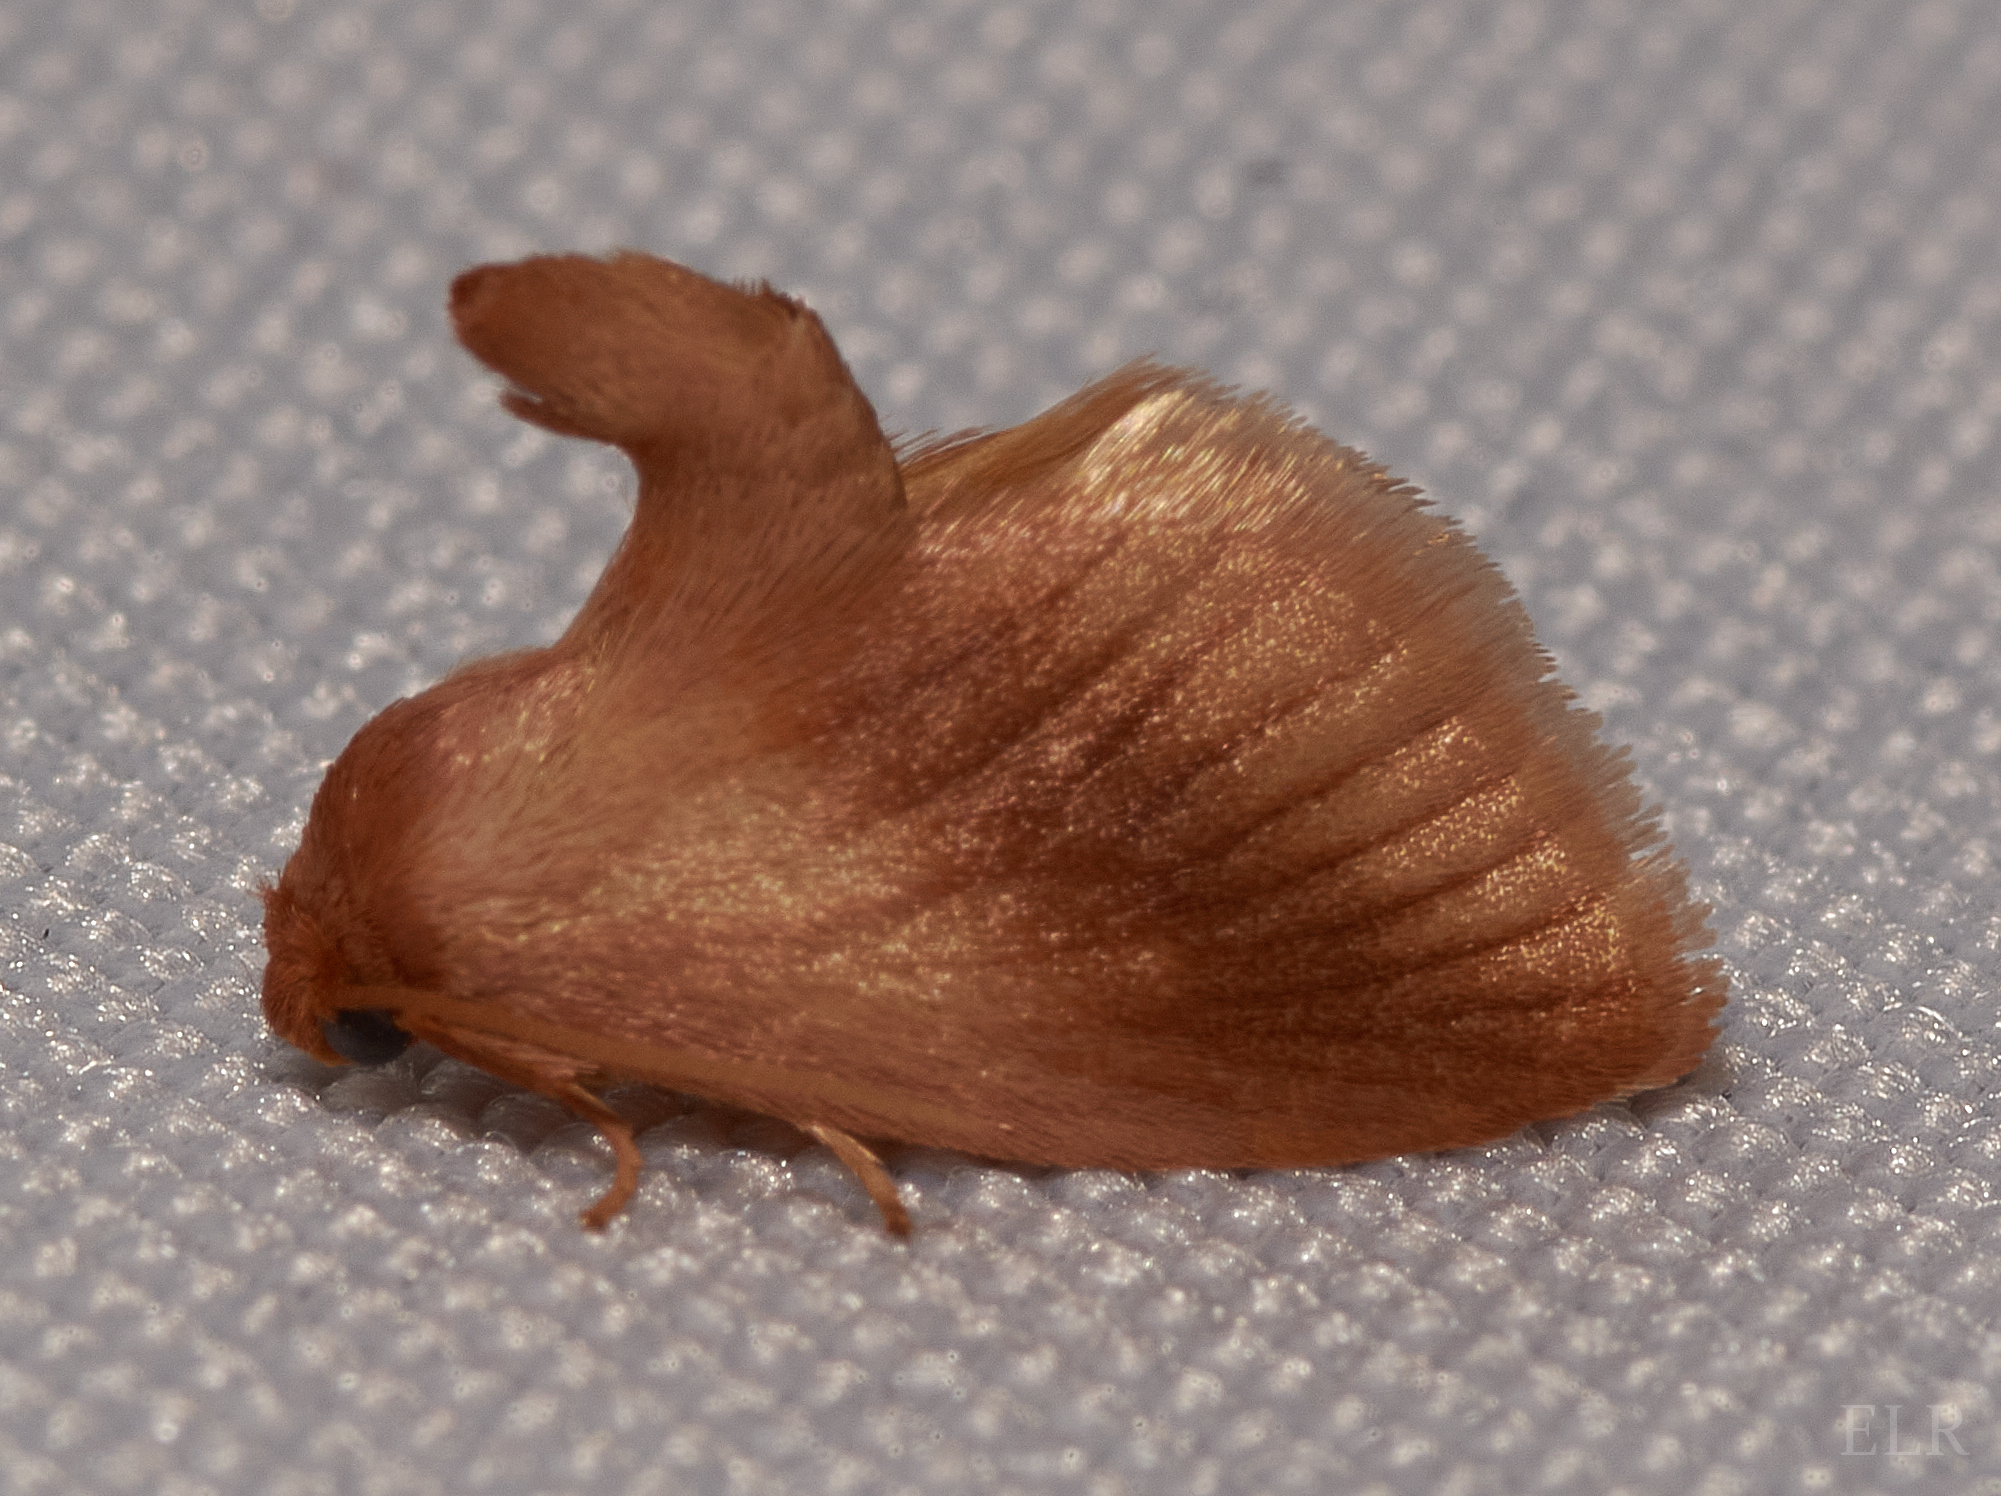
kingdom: Animalia
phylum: Arthropoda
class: Insecta
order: Lepidoptera
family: Limacodidae
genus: Tortricidia
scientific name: Tortricidia testacea
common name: Early button slug moth
